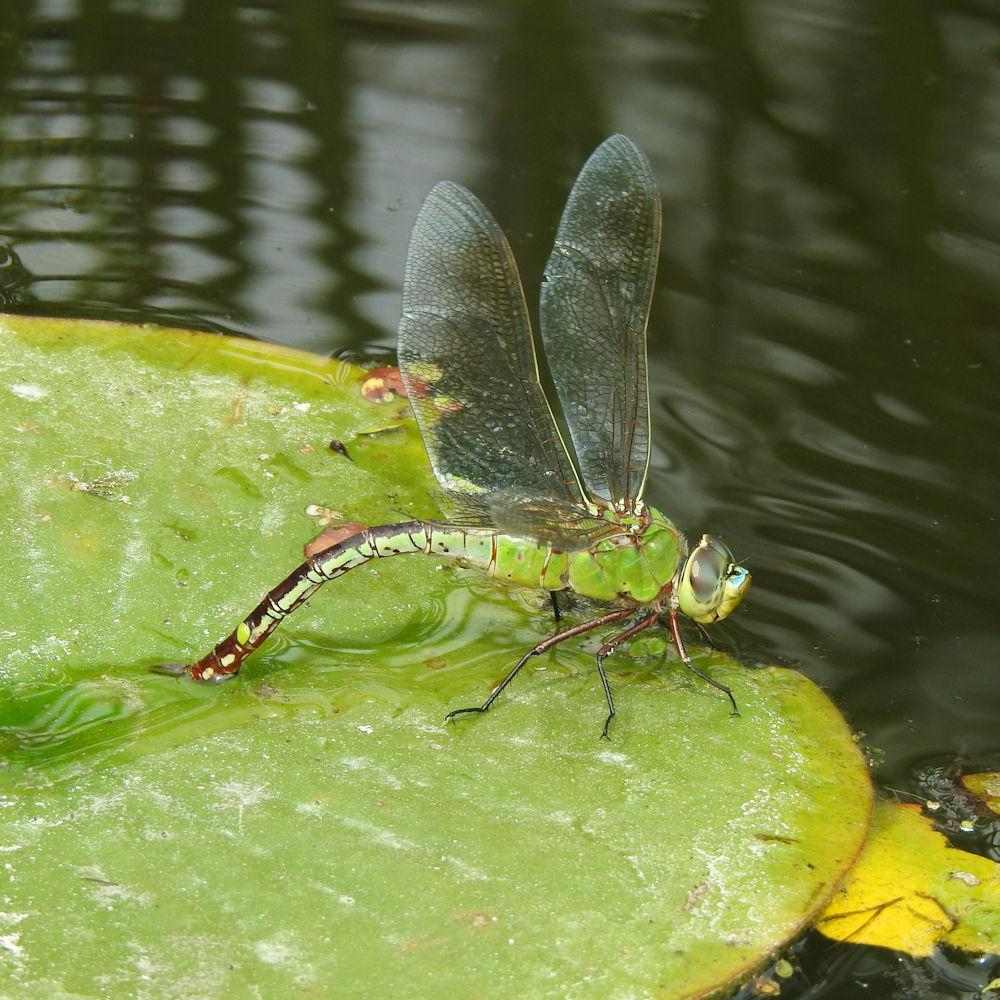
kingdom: Animalia
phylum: Arthropoda
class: Insecta
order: Odonata
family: Aeshnidae
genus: Anax
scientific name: Anax junius
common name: Common green darner
